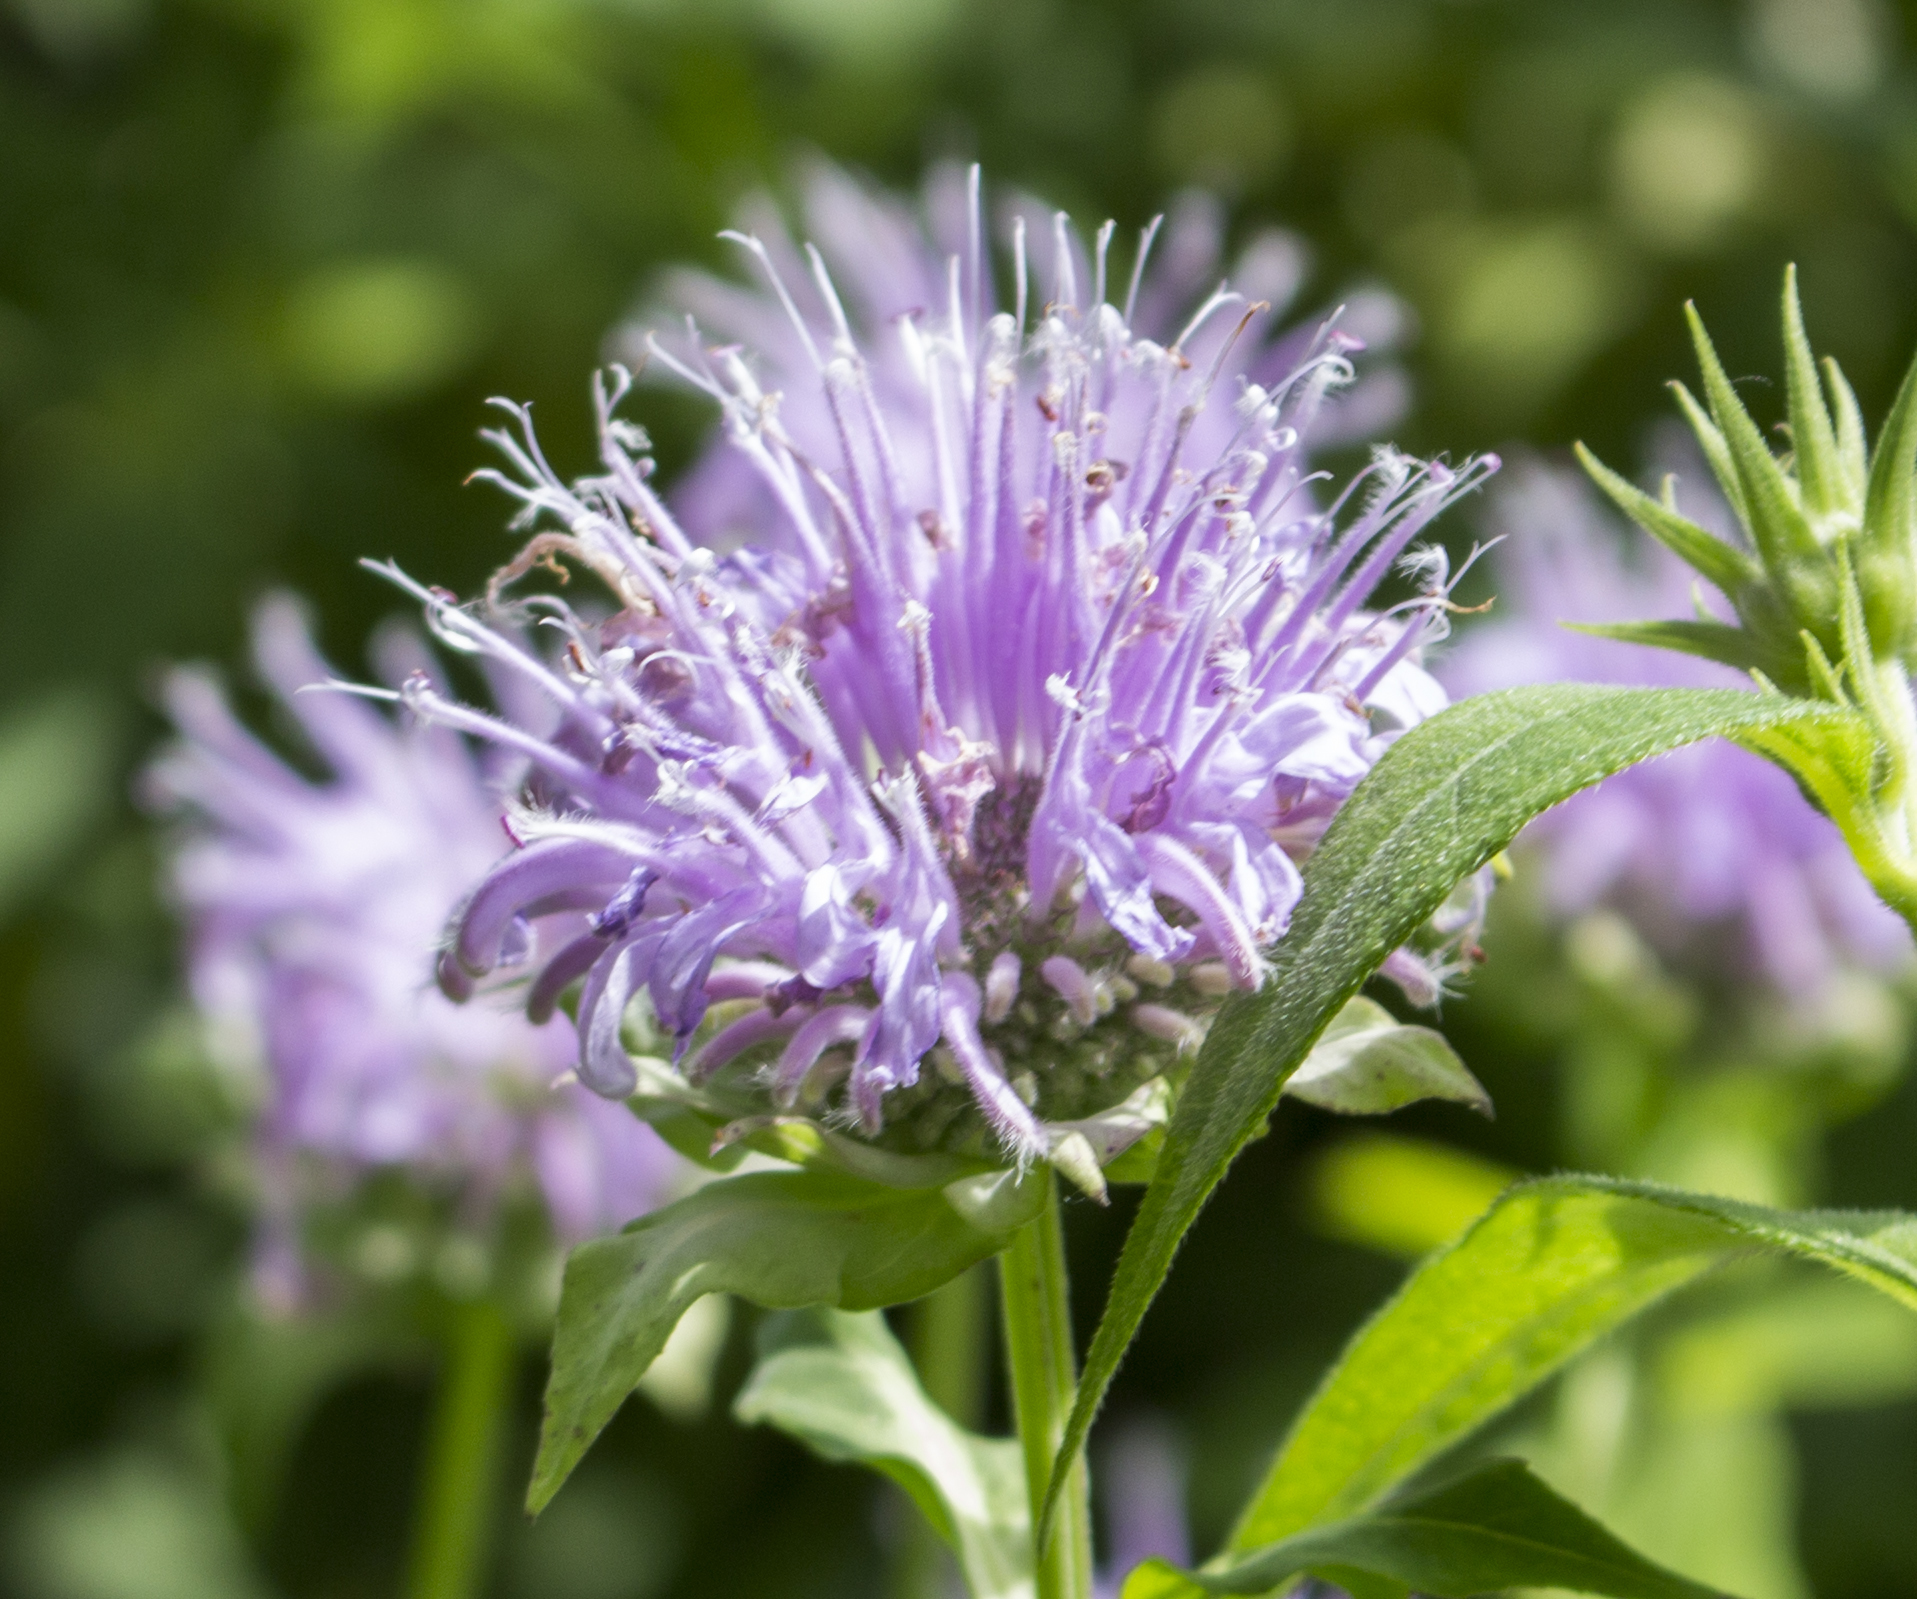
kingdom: Plantae
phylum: Tracheophyta
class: Magnoliopsida
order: Lamiales
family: Lamiaceae
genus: Monarda
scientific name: Monarda fistulosa
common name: Purple beebalm
